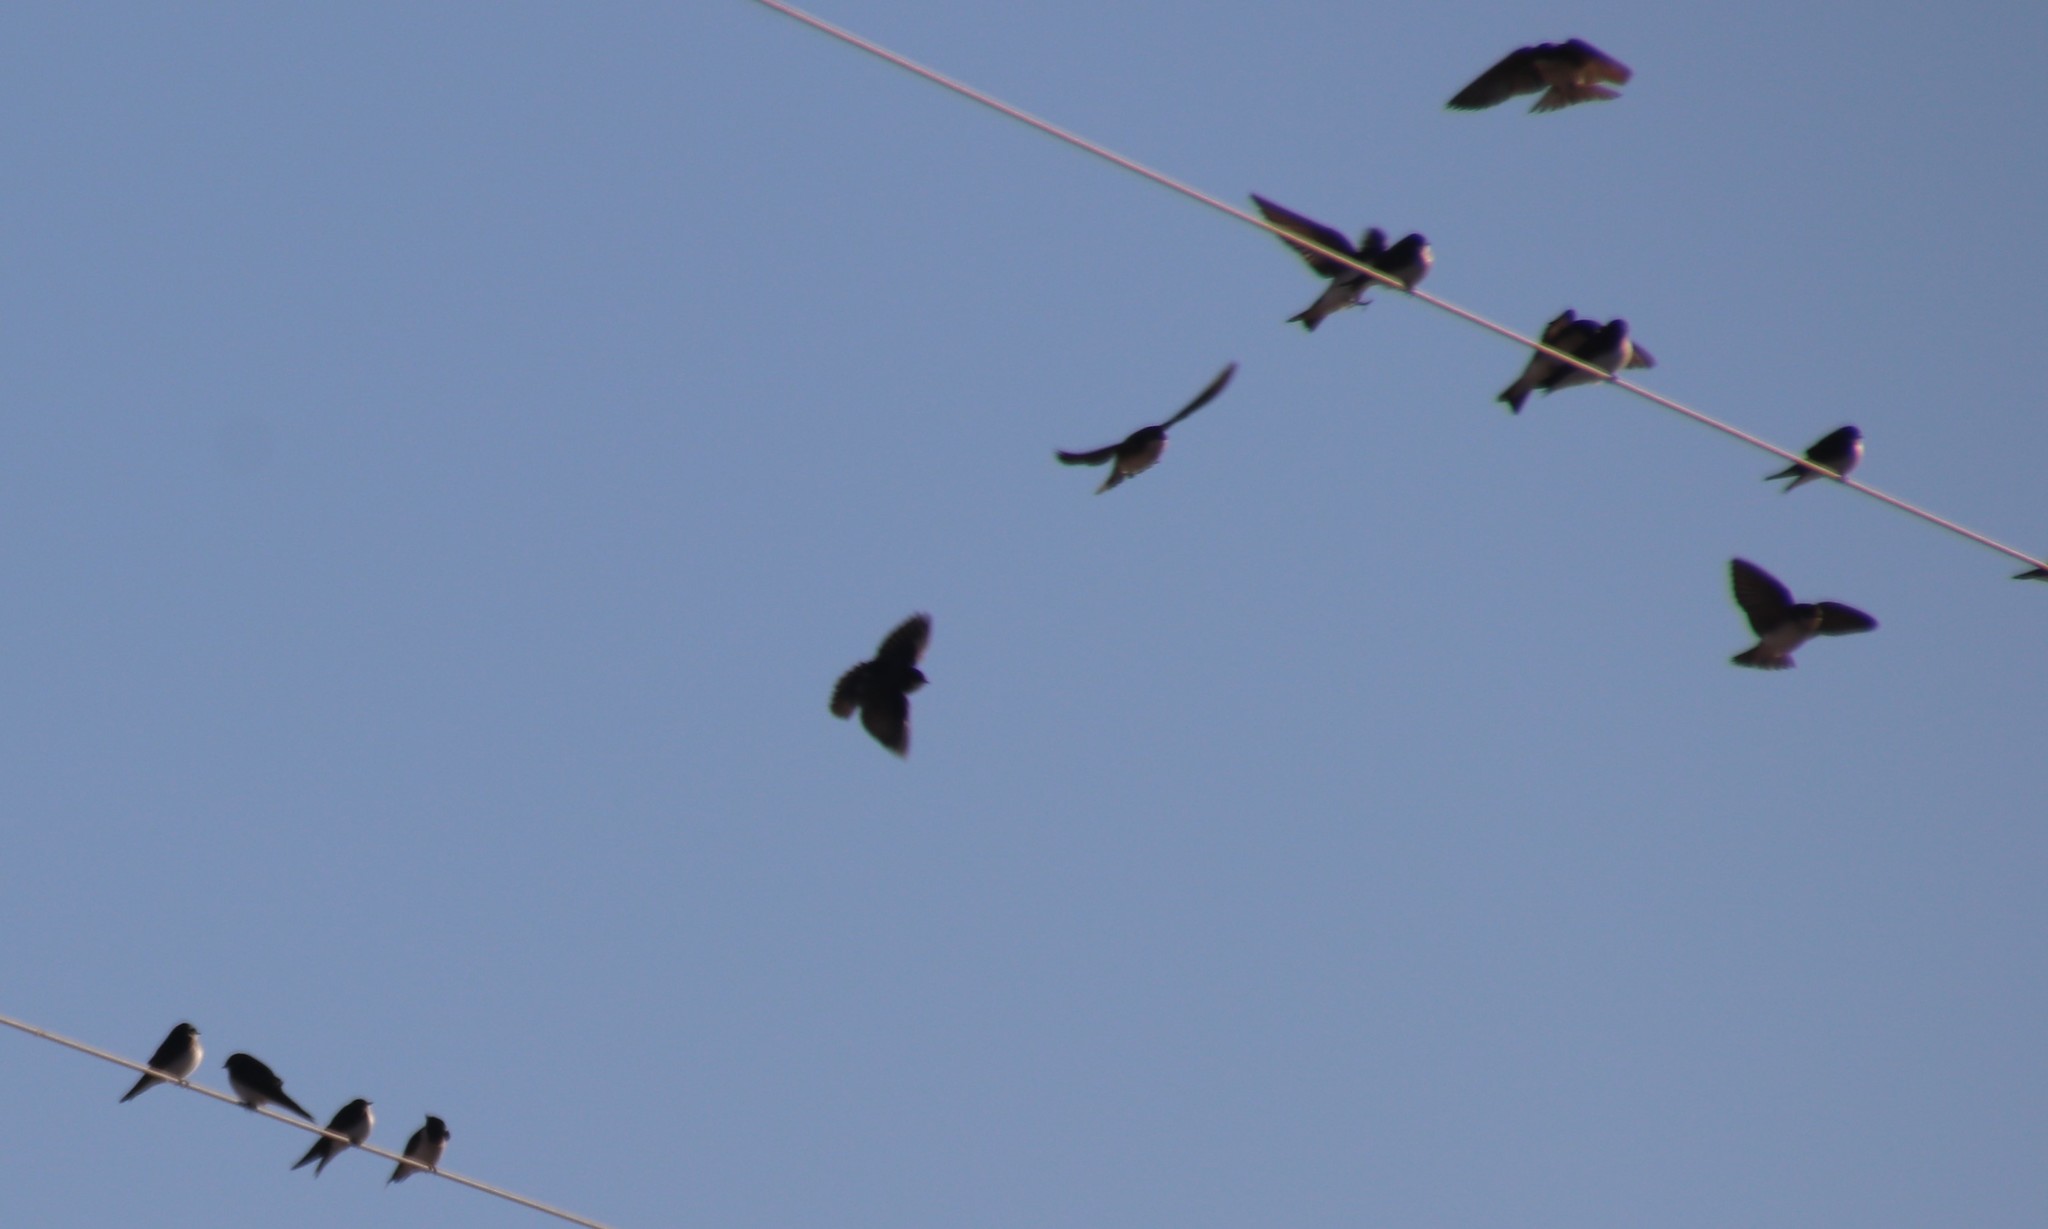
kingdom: Animalia
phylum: Chordata
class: Aves
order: Passeriformes
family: Hirundinidae
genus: Tachycineta
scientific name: Tachycineta bicolor
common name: Tree swallow
